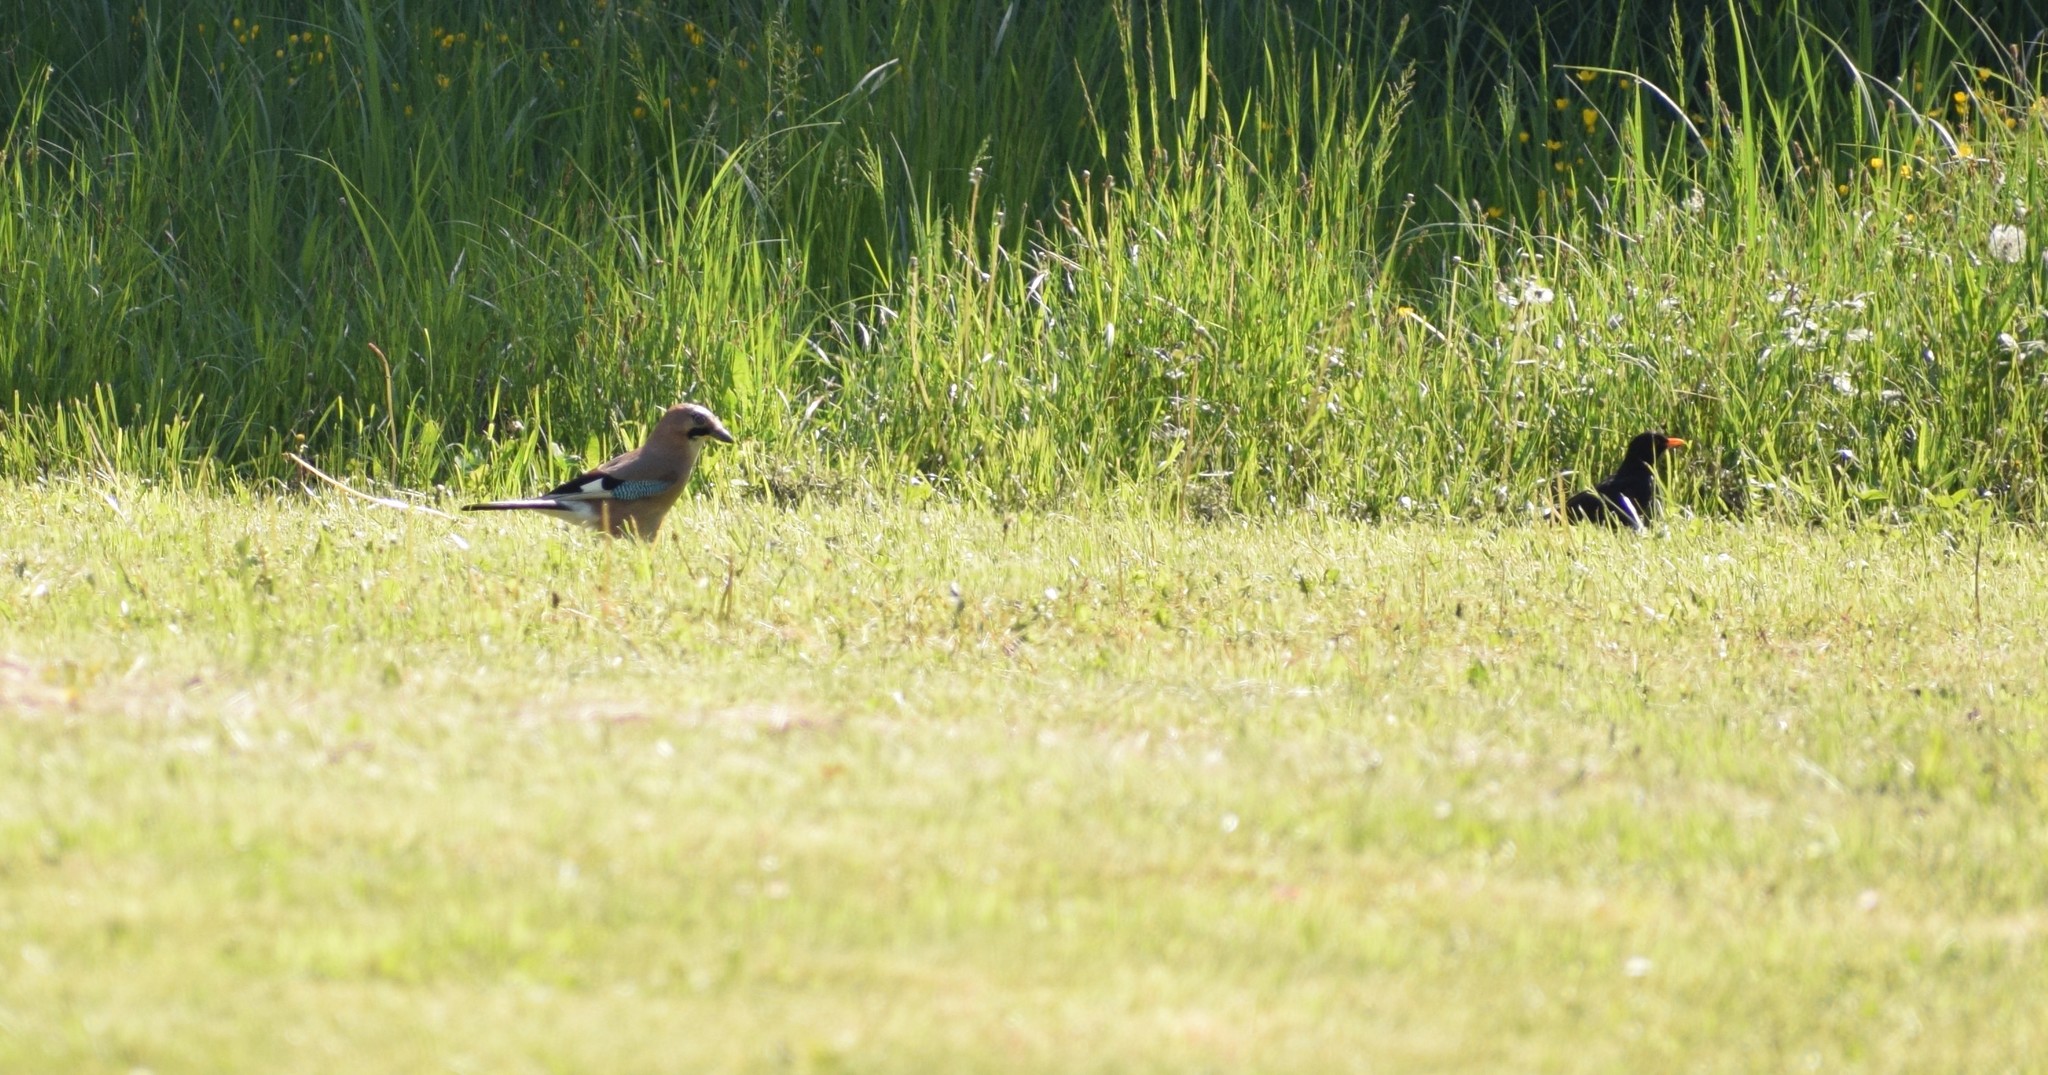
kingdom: Animalia
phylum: Chordata
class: Aves
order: Passeriformes
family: Corvidae
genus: Garrulus
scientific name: Garrulus glandarius
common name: Eurasian jay
